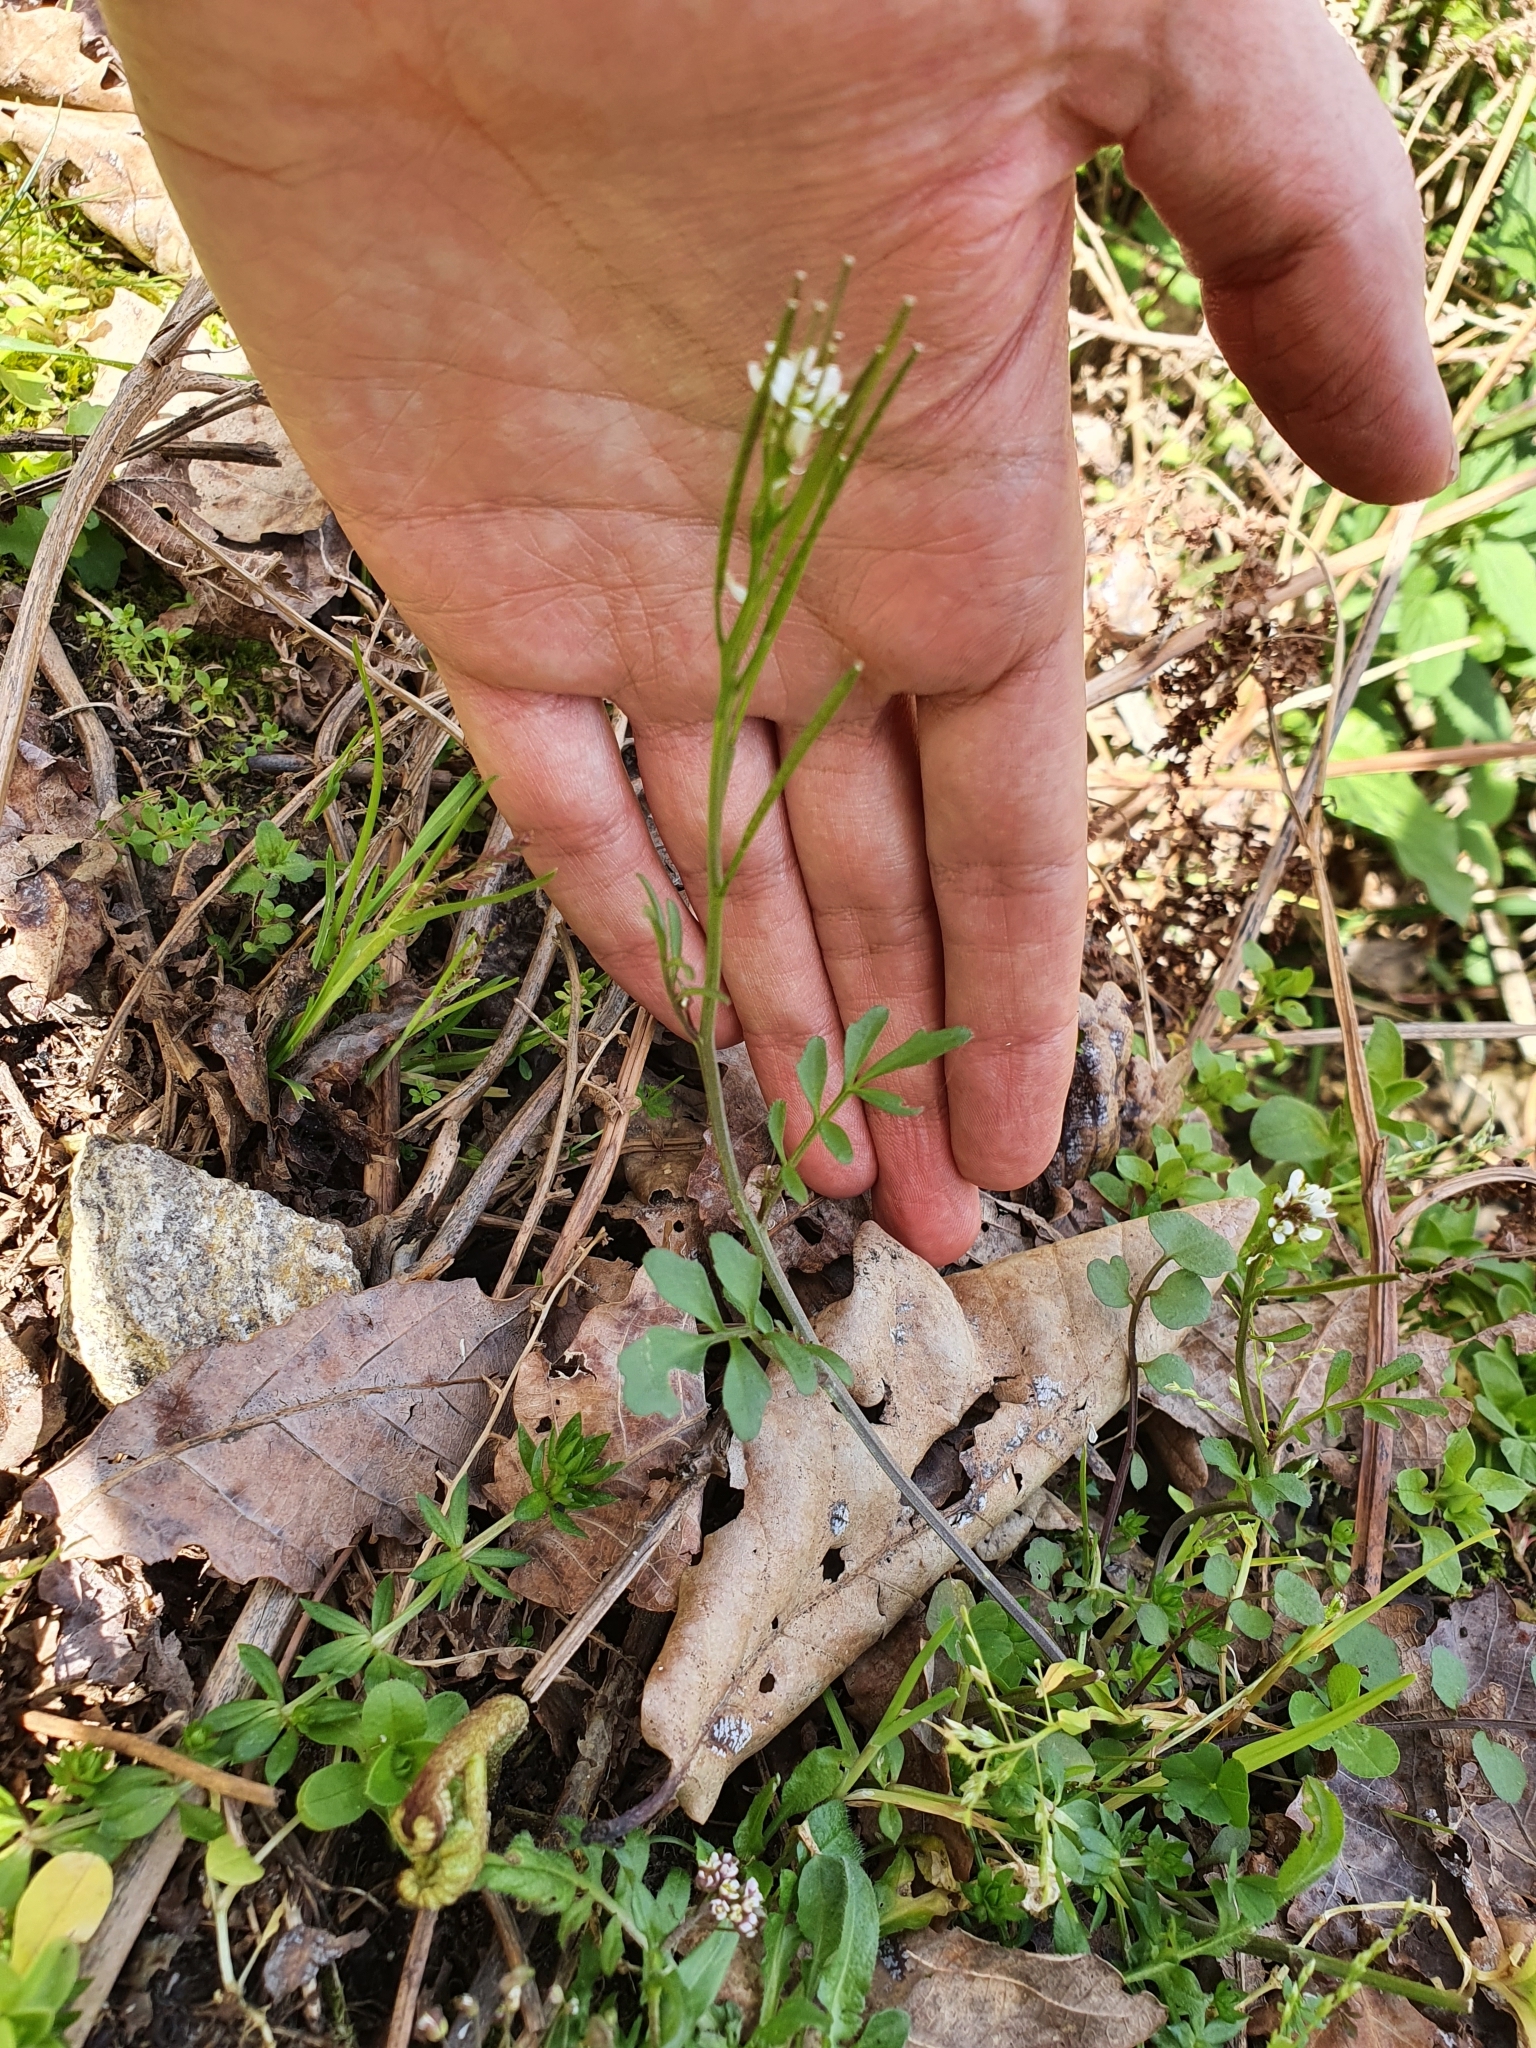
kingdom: Plantae
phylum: Tracheophyta
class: Magnoliopsida
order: Brassicales
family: Brassicaceae
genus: Cardamine
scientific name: Cardamine hirsuta
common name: Hairy bittercress
